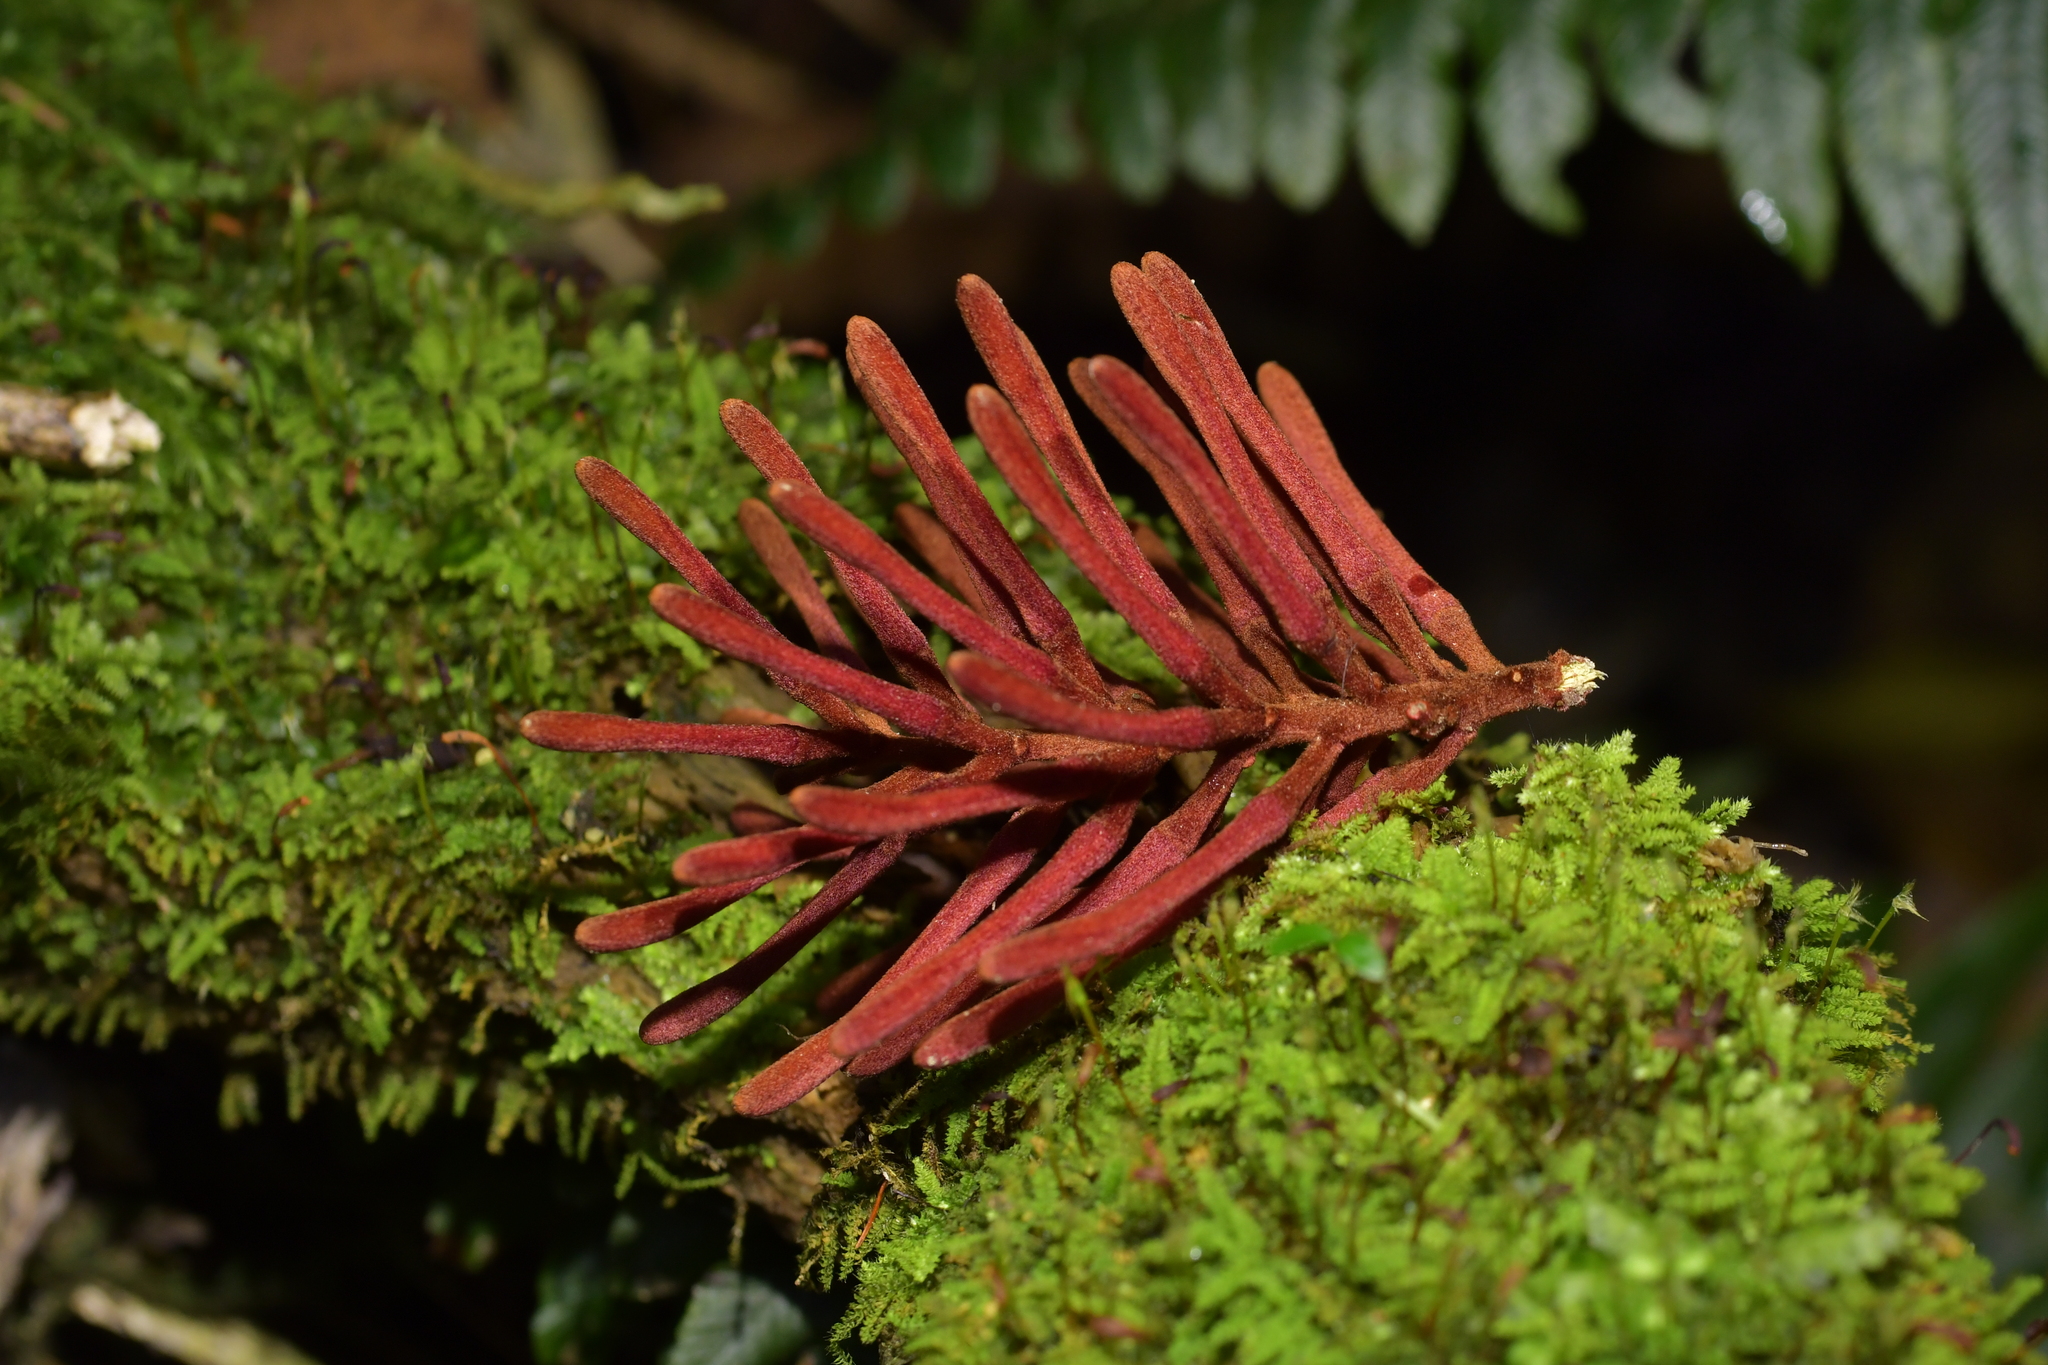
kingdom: Plantae
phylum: Tracheophyta
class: Magnoliopsida
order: Proteales
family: Proteaceae
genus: Knightia
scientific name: Knightia excelsa
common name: New zealand-honeysuckle
